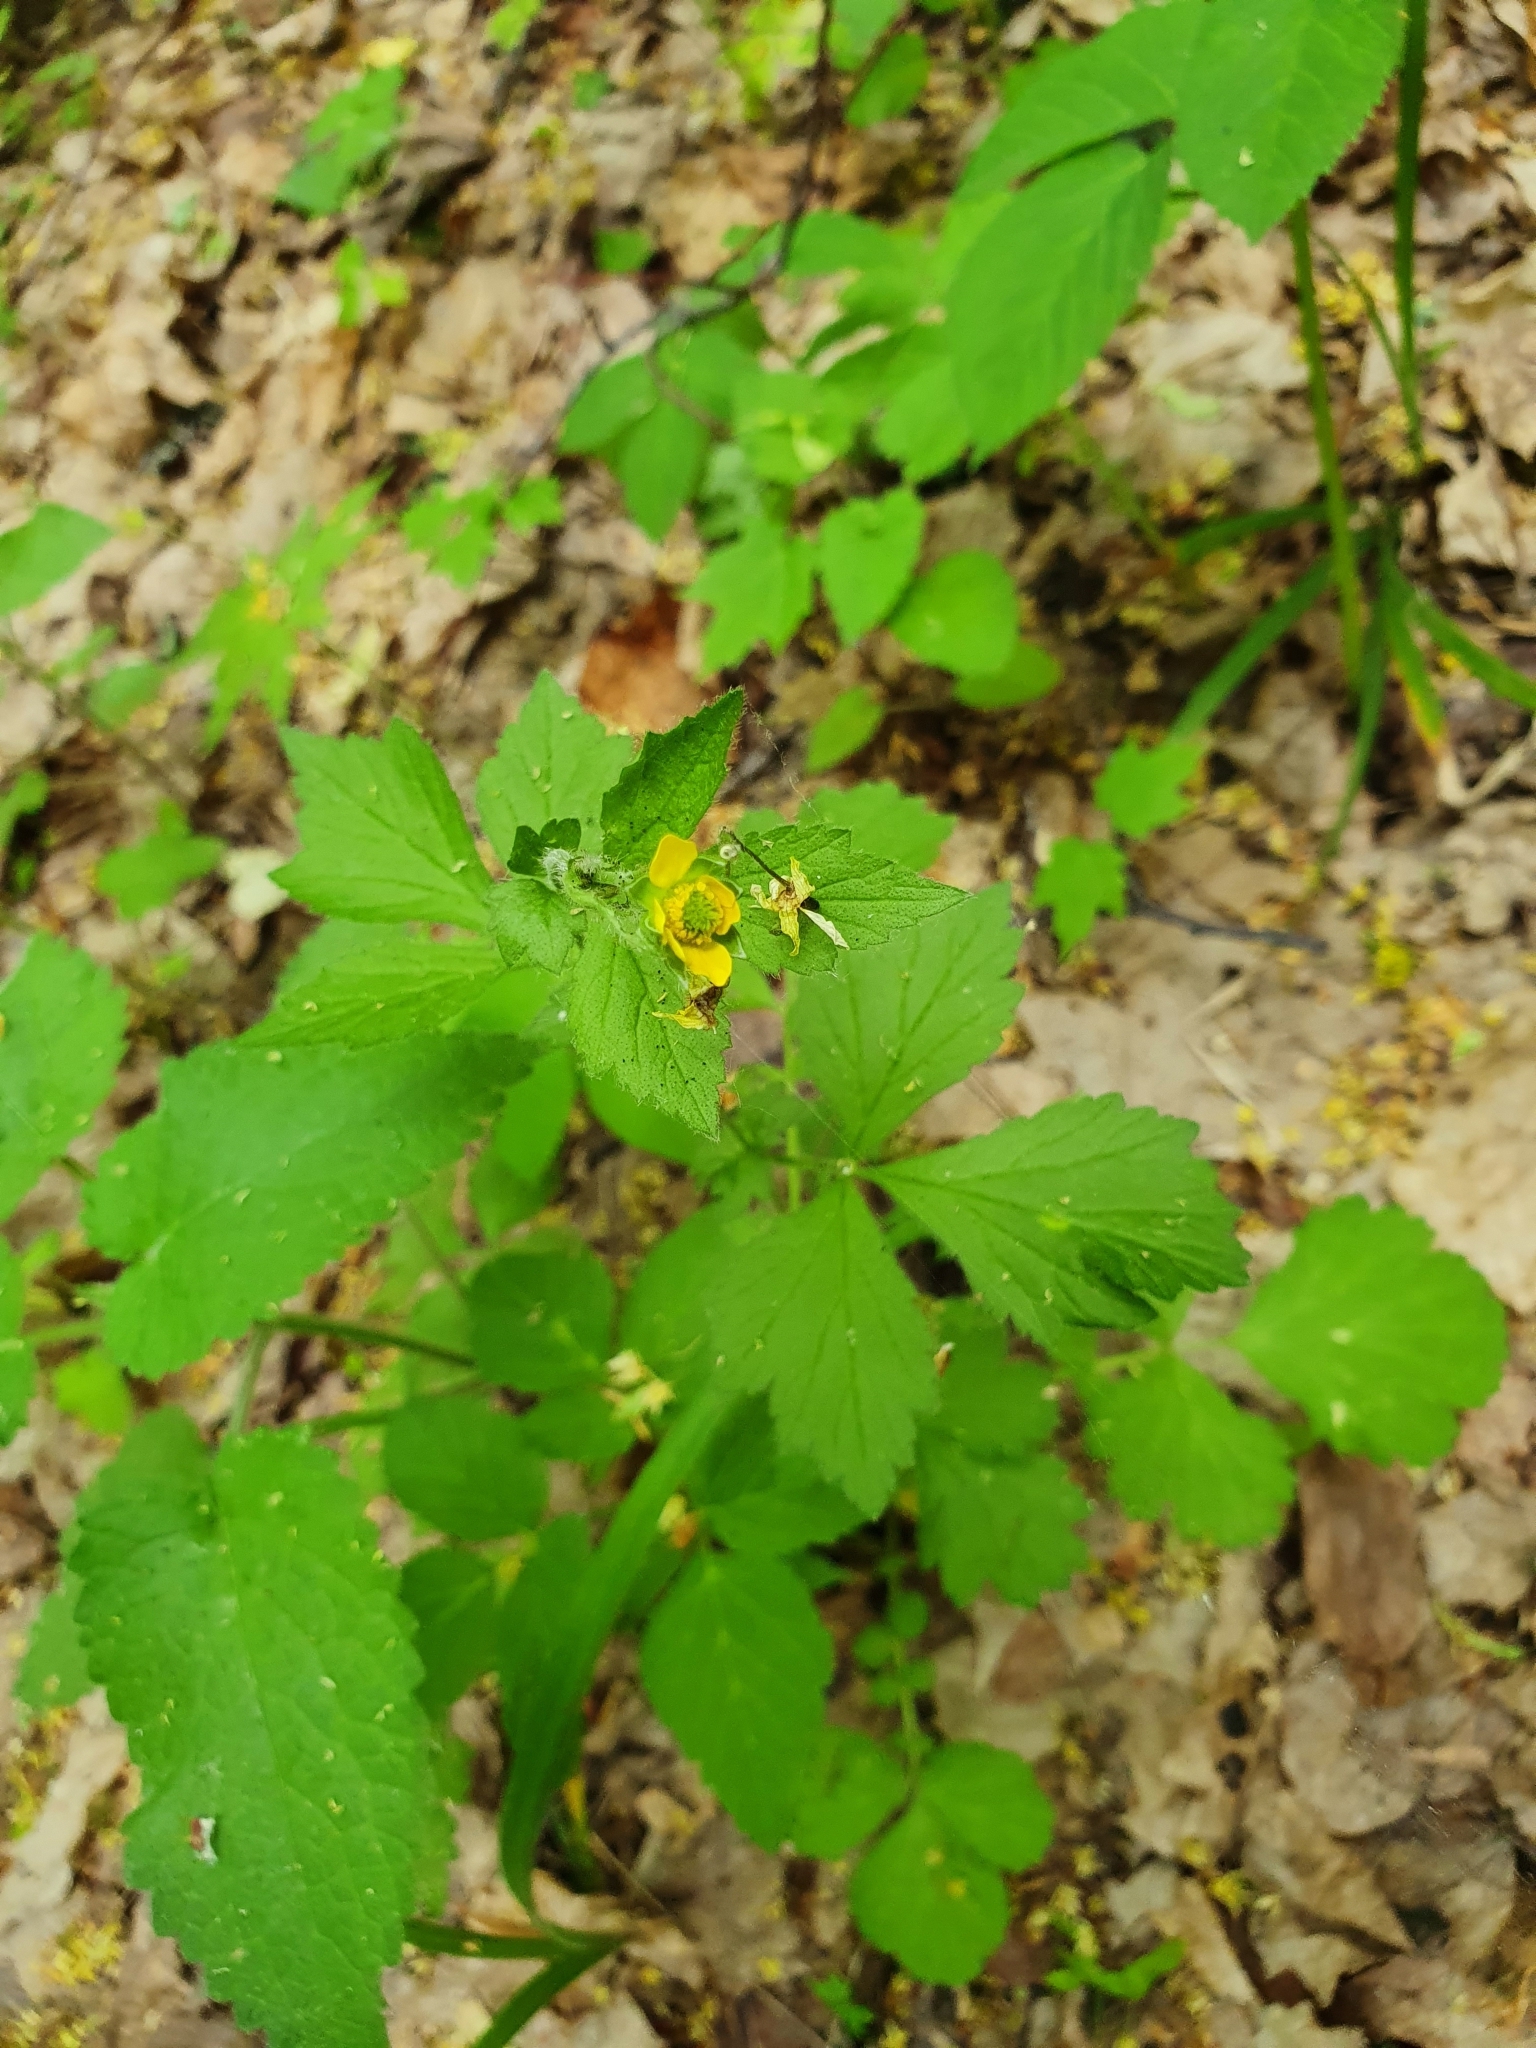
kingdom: Plantae
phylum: Tracheophyta
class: Magnoliopsida
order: Rosales
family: Rosaceae
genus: Geum
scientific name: Geum urbanum
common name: Wood avens
